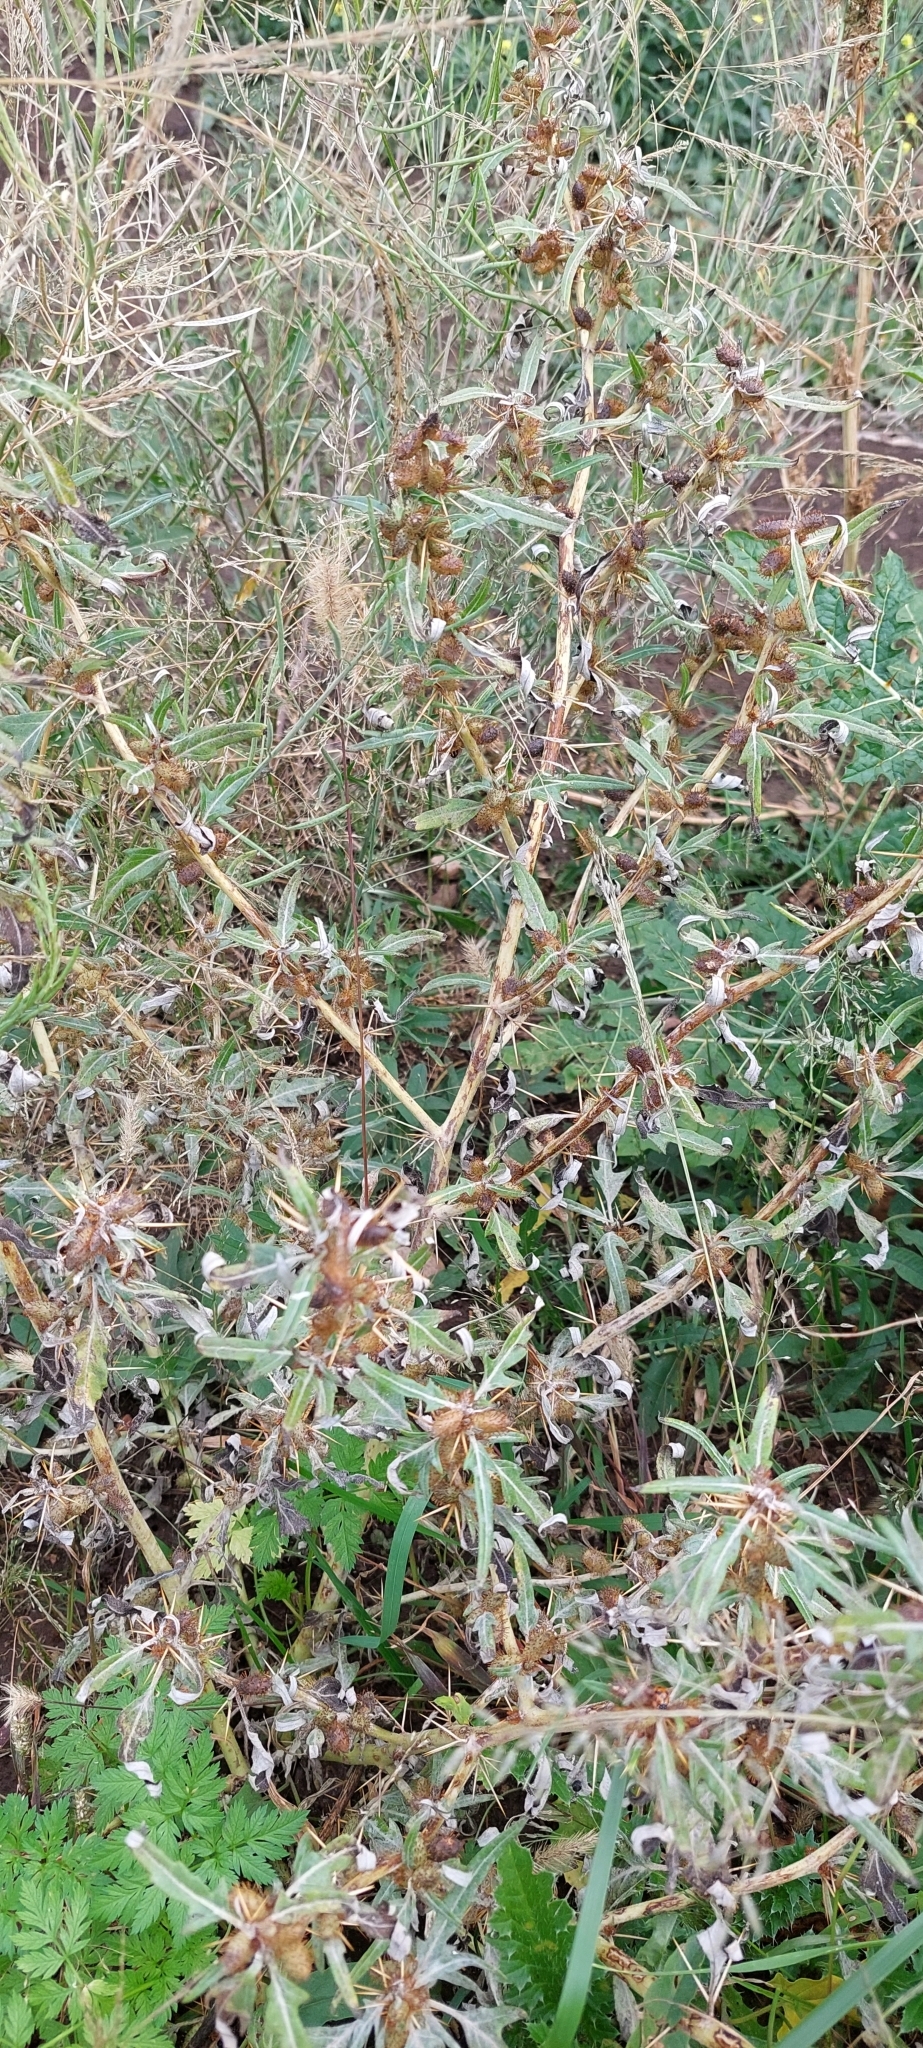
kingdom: Plantae
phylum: Tracheophyta
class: Magnoliopsida
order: Asterales
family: Asteraceae
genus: Xanthium
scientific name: Xanthium spinosum
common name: Spiny cocklebur
